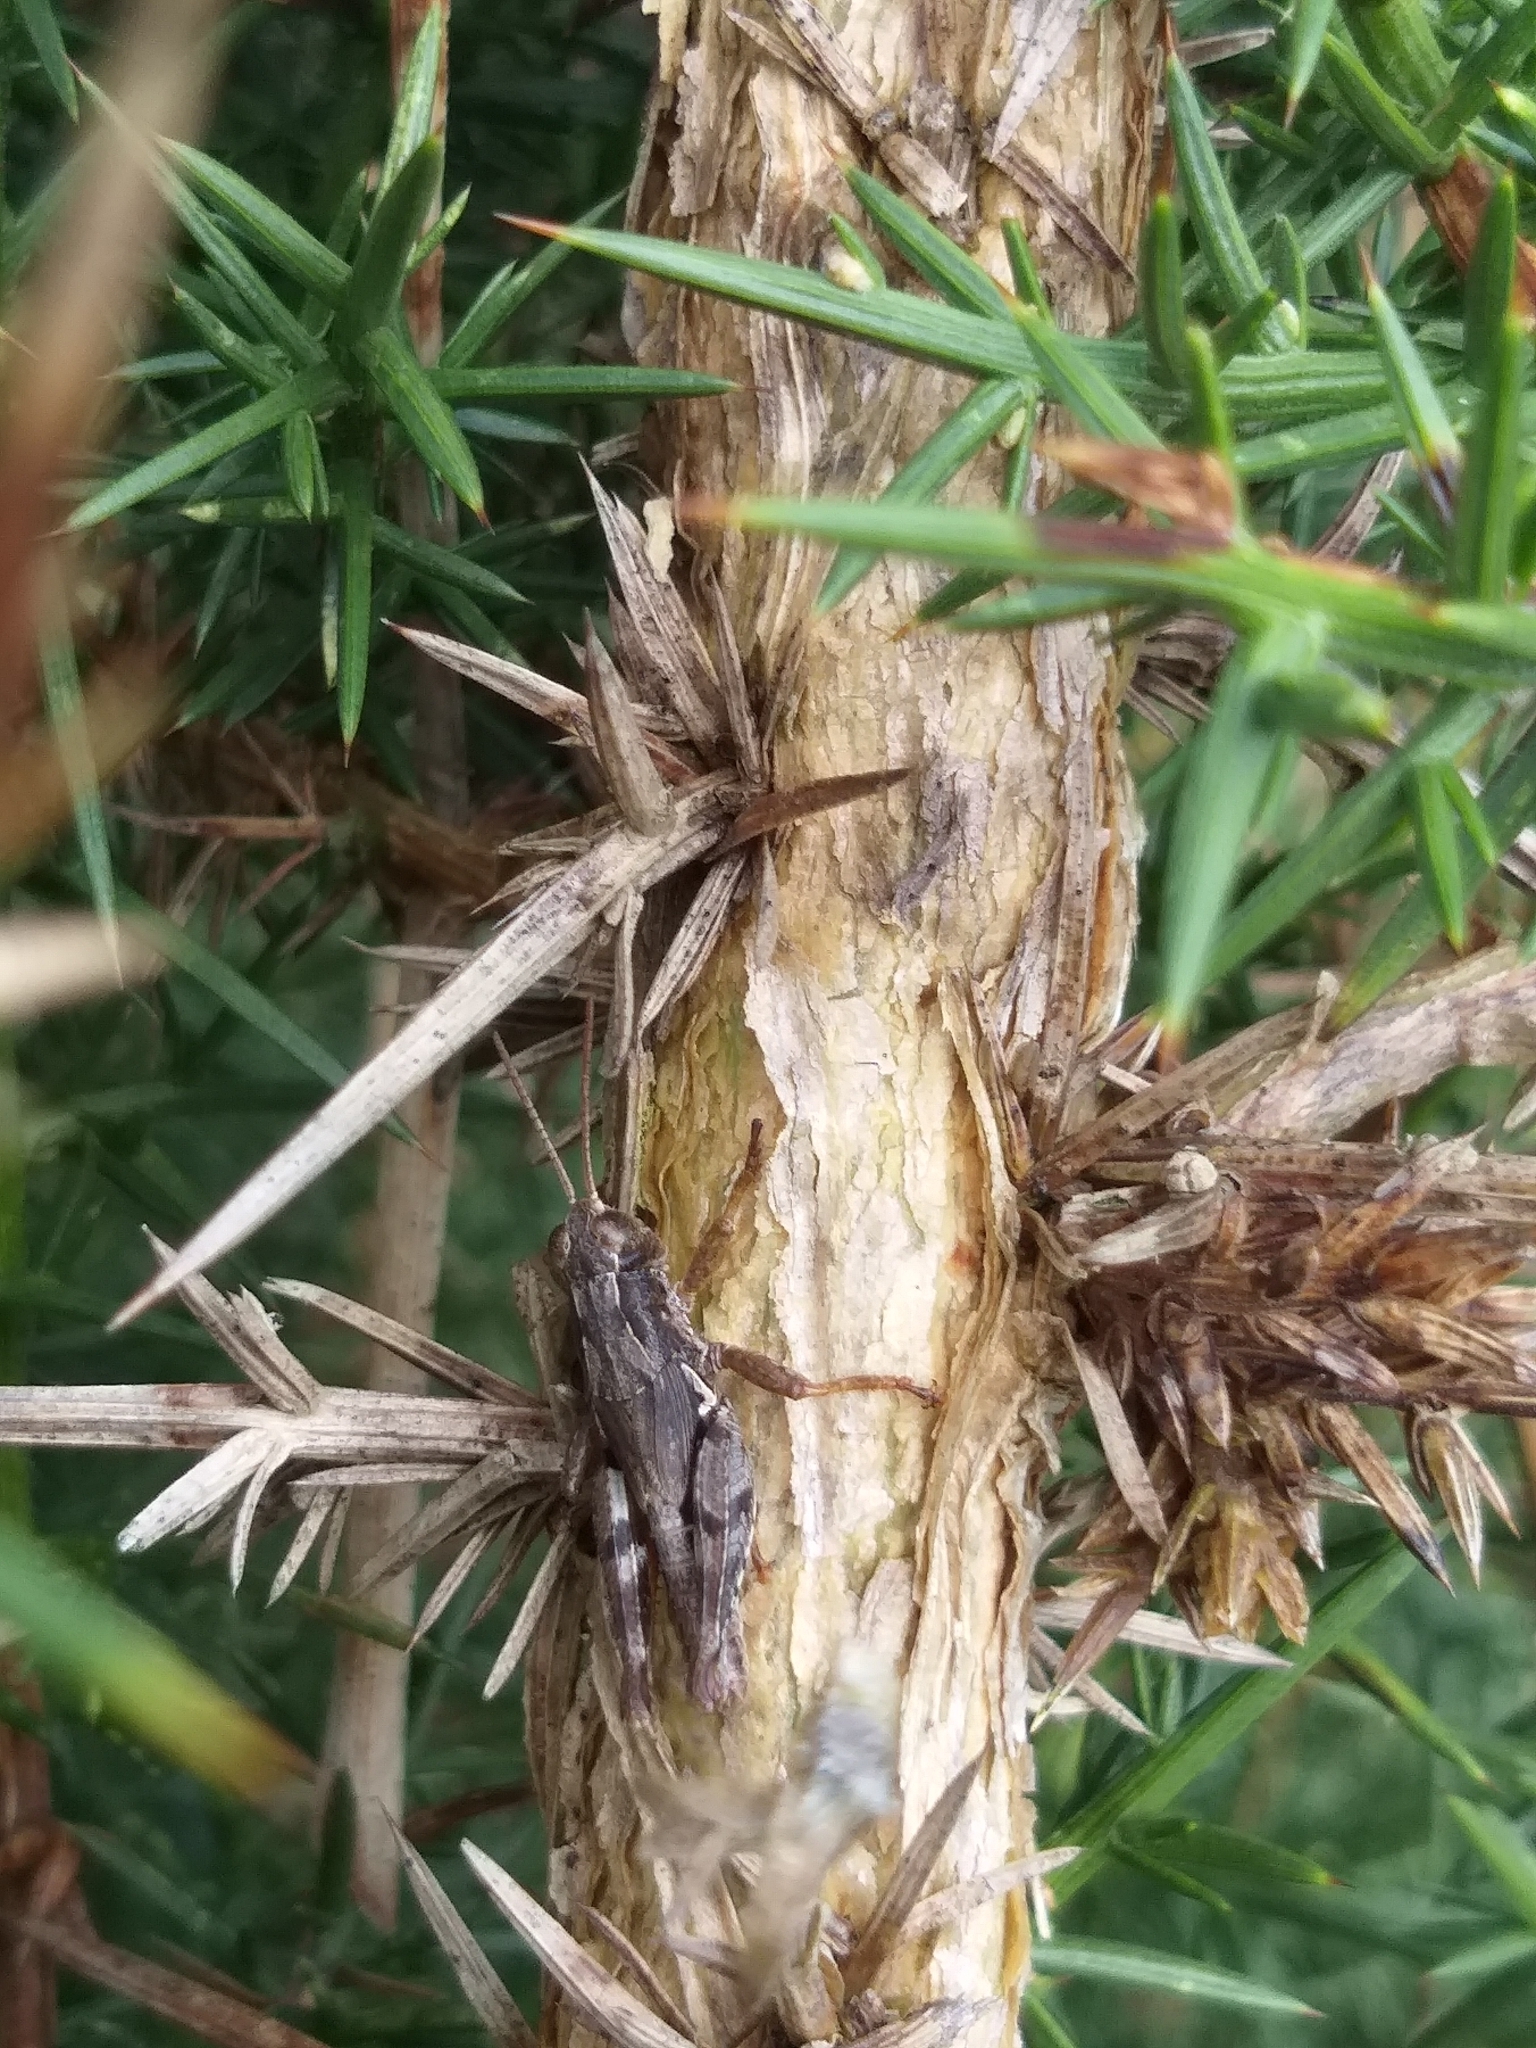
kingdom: Animalia
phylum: Arthropoda
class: Insecta
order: Orthoptera
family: Acrididae
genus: Phaulacridium
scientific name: Phaulacridium marginale
